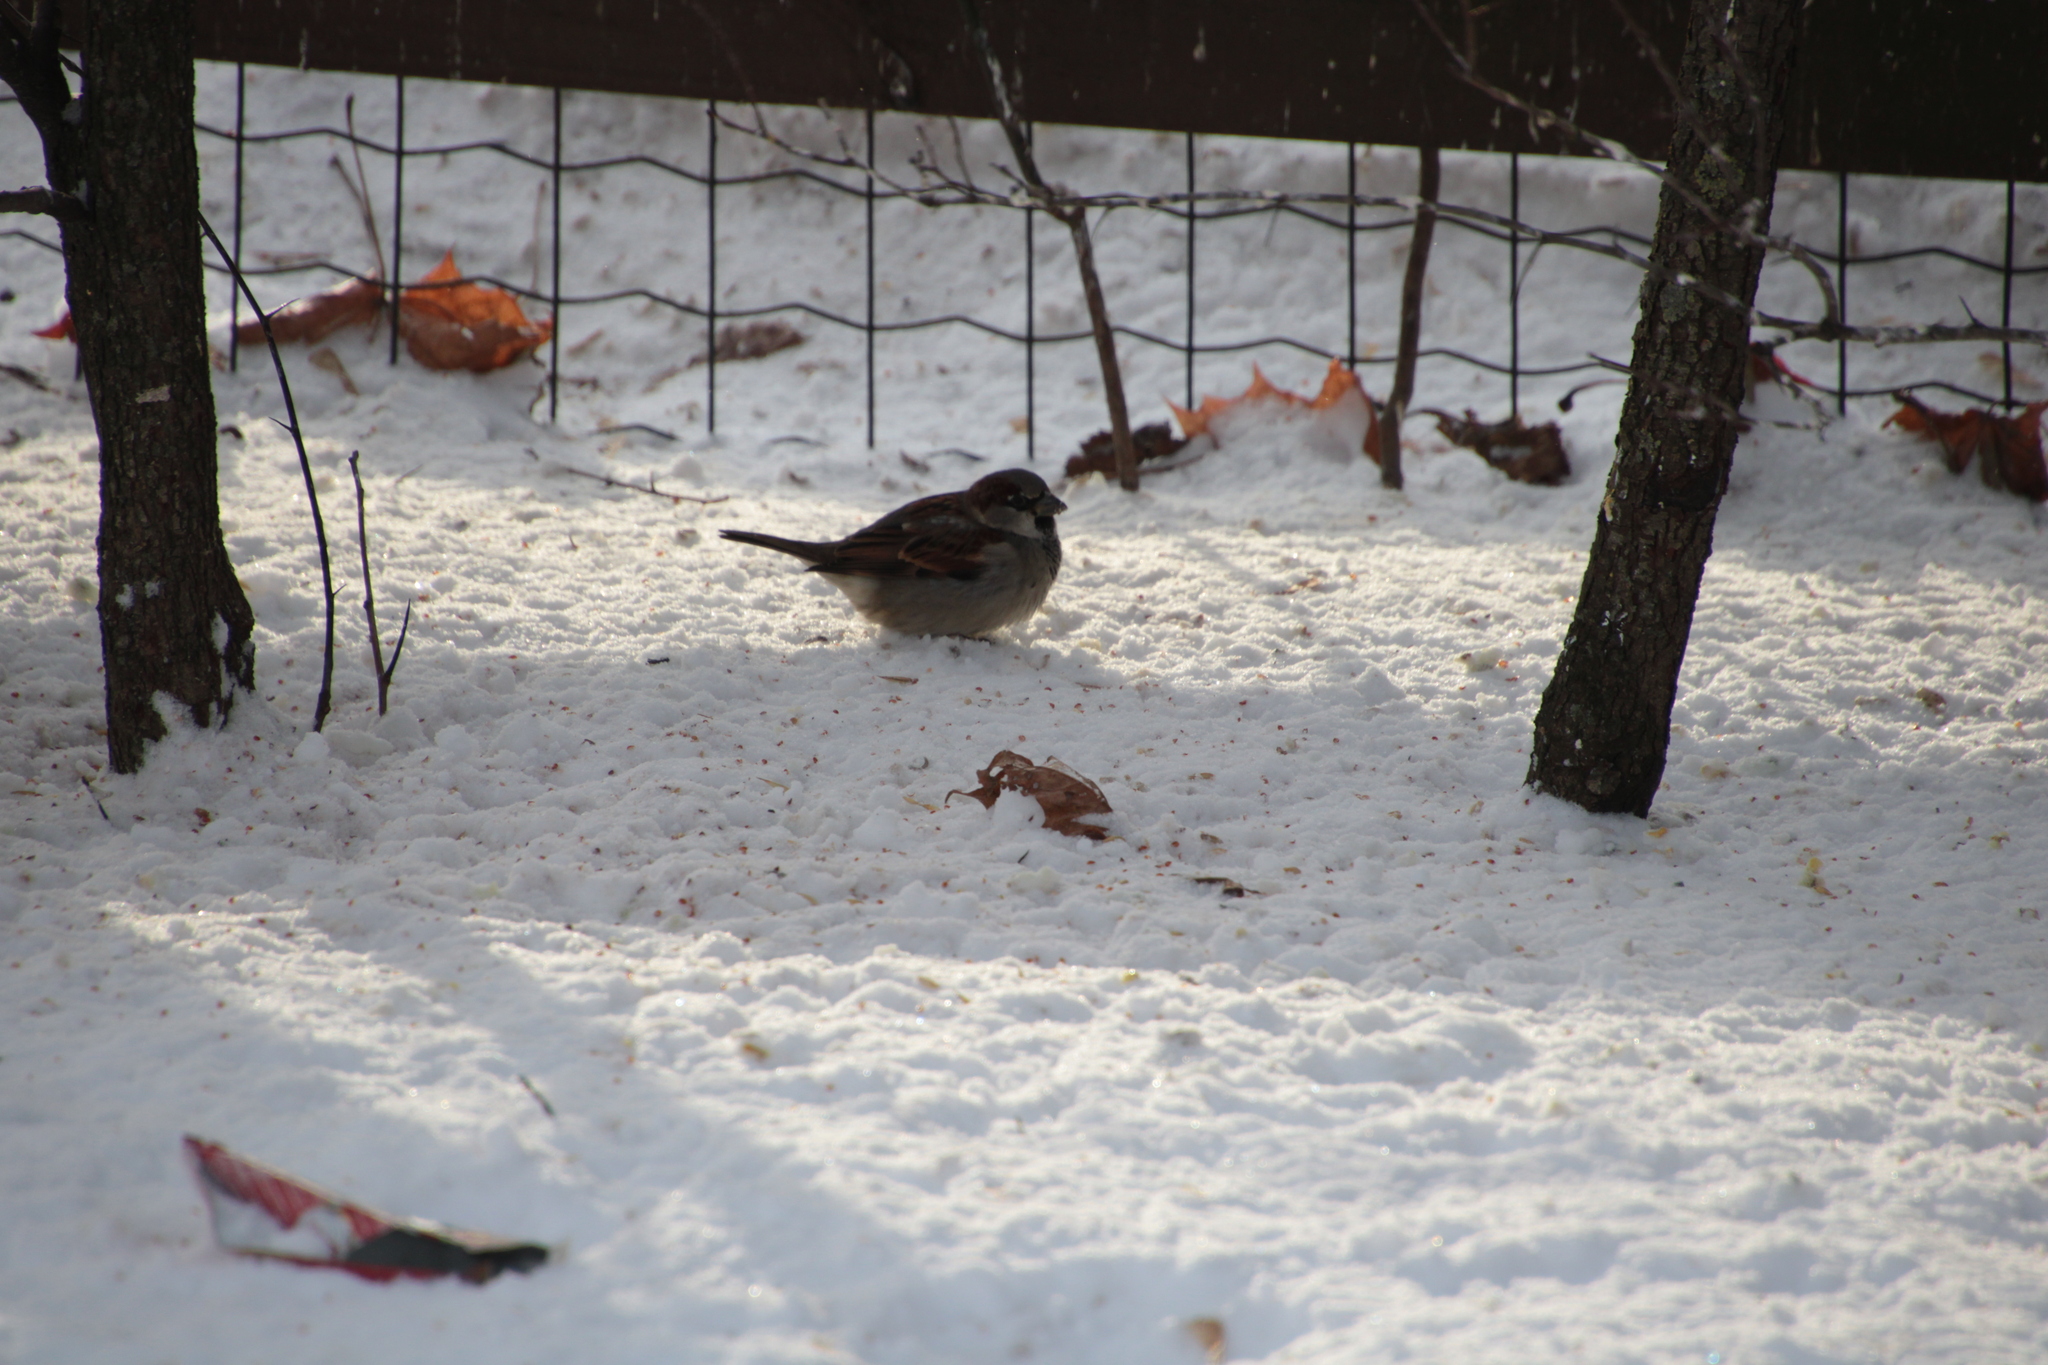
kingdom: Animalia
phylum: Chordata
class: Aves
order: Passeriformes
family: Passeridae
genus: Passer
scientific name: Passer domesticus
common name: House sparrow
